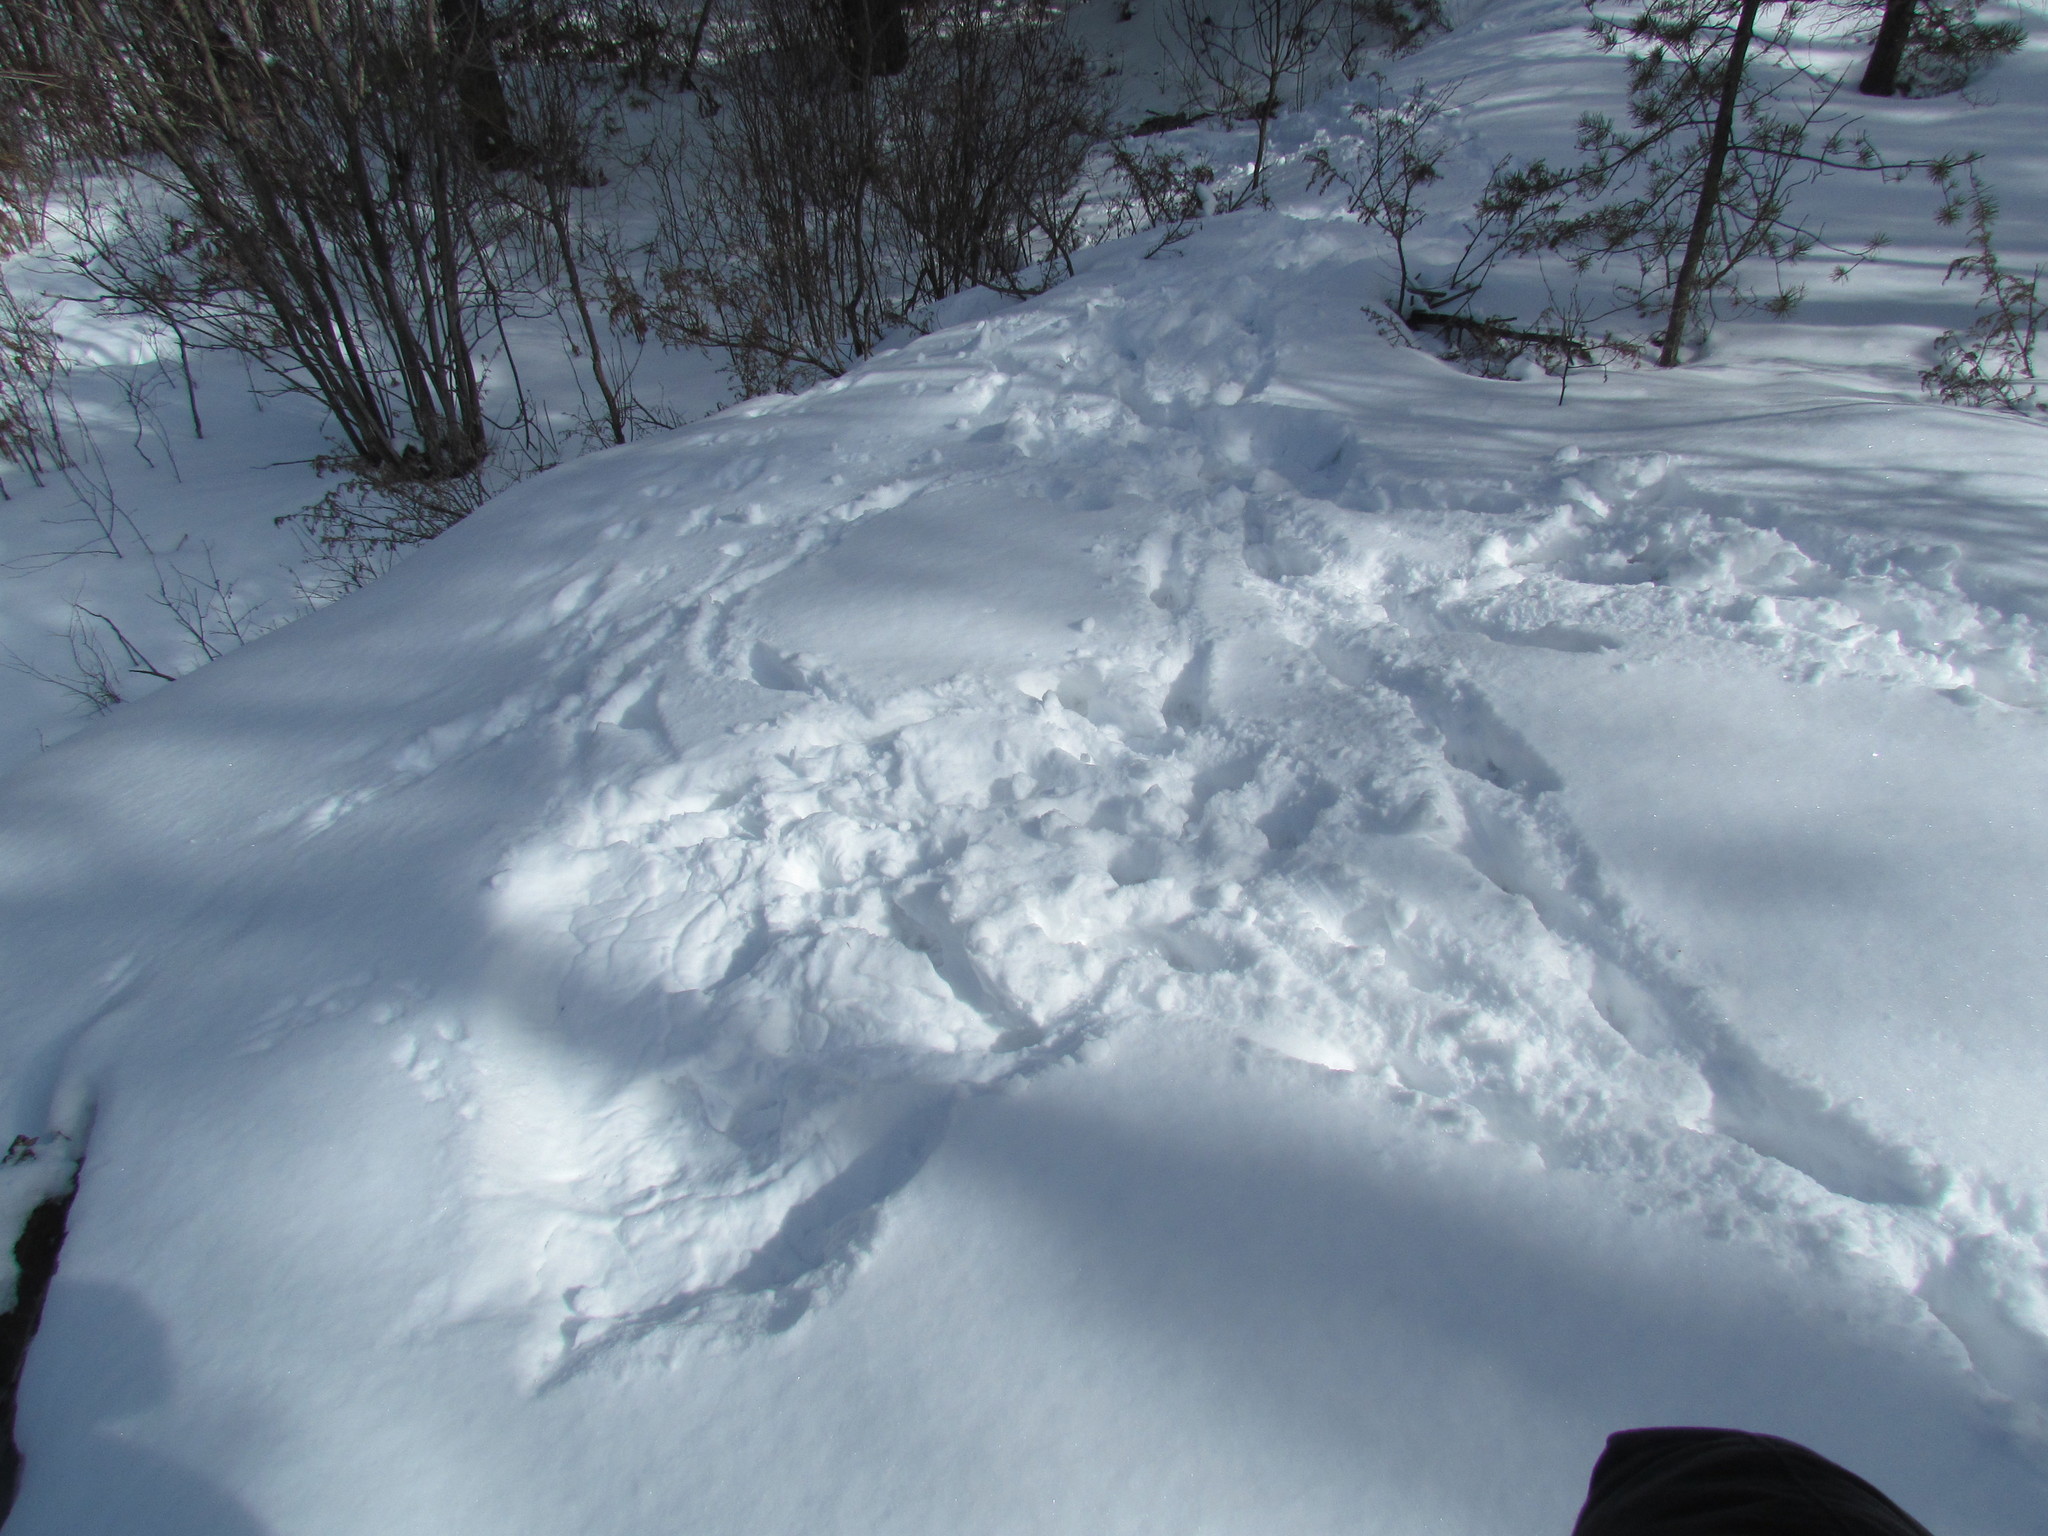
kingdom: Animalia
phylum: Chordata
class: Mammalia
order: Carnivora
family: Canidae
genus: Canis
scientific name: Canis lycaon
